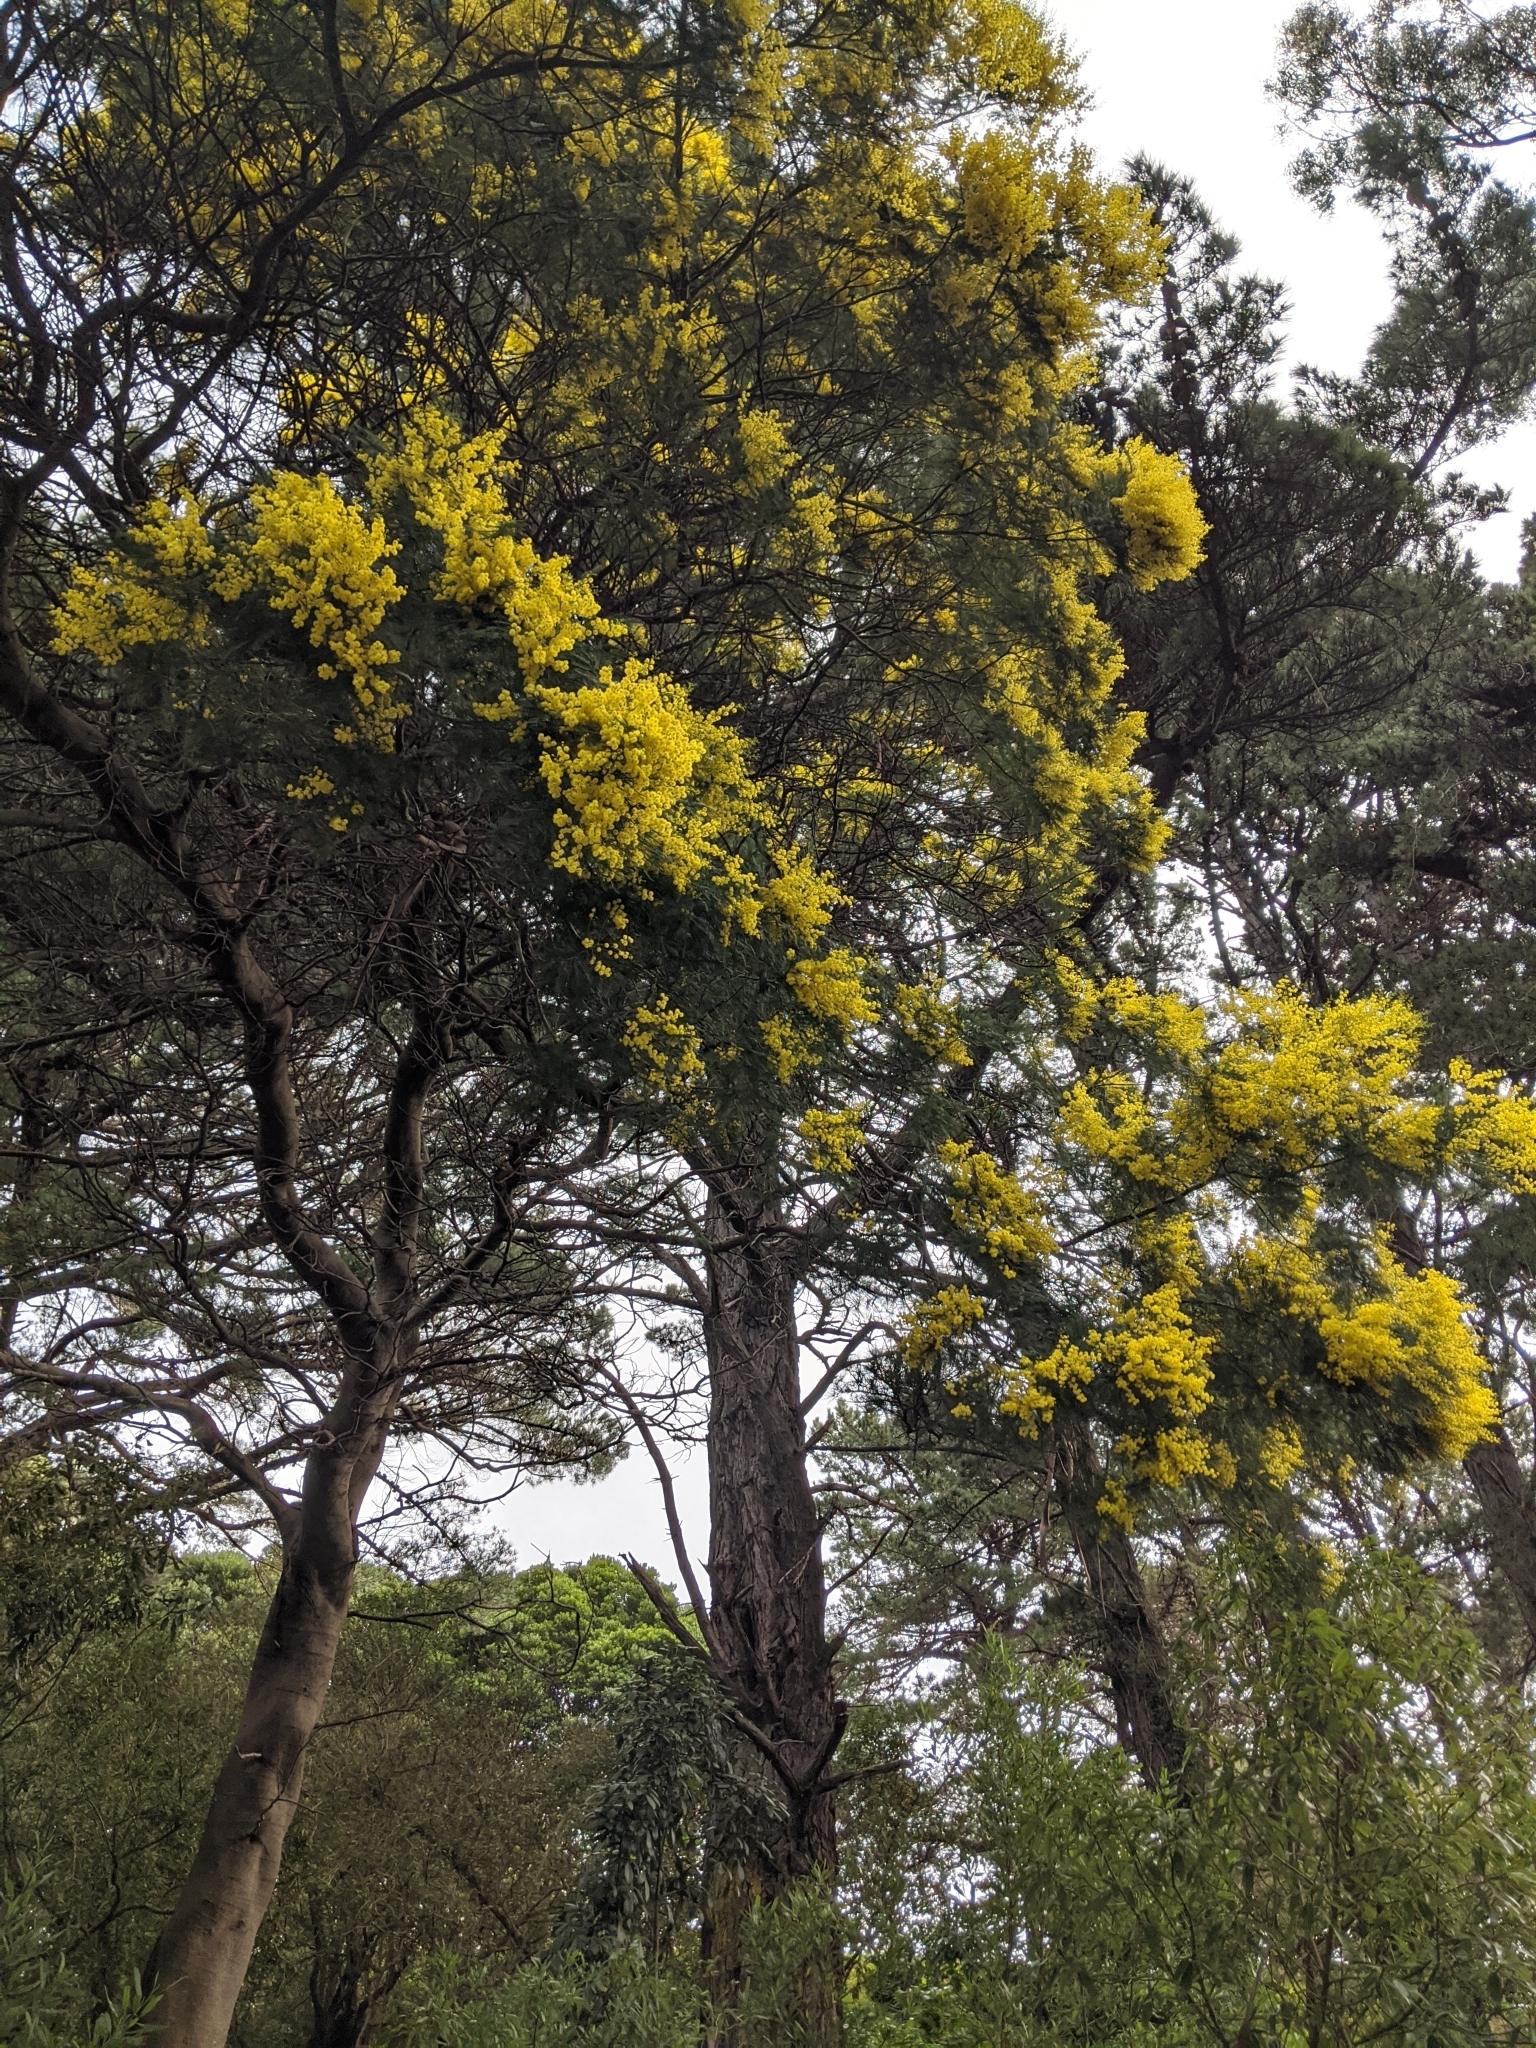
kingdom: Plantae
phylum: Tracheophyta
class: Magnoliopsida
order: Fabales
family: Fabaceae
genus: Acacia
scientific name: Acacia dealbata
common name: Silver wattle
